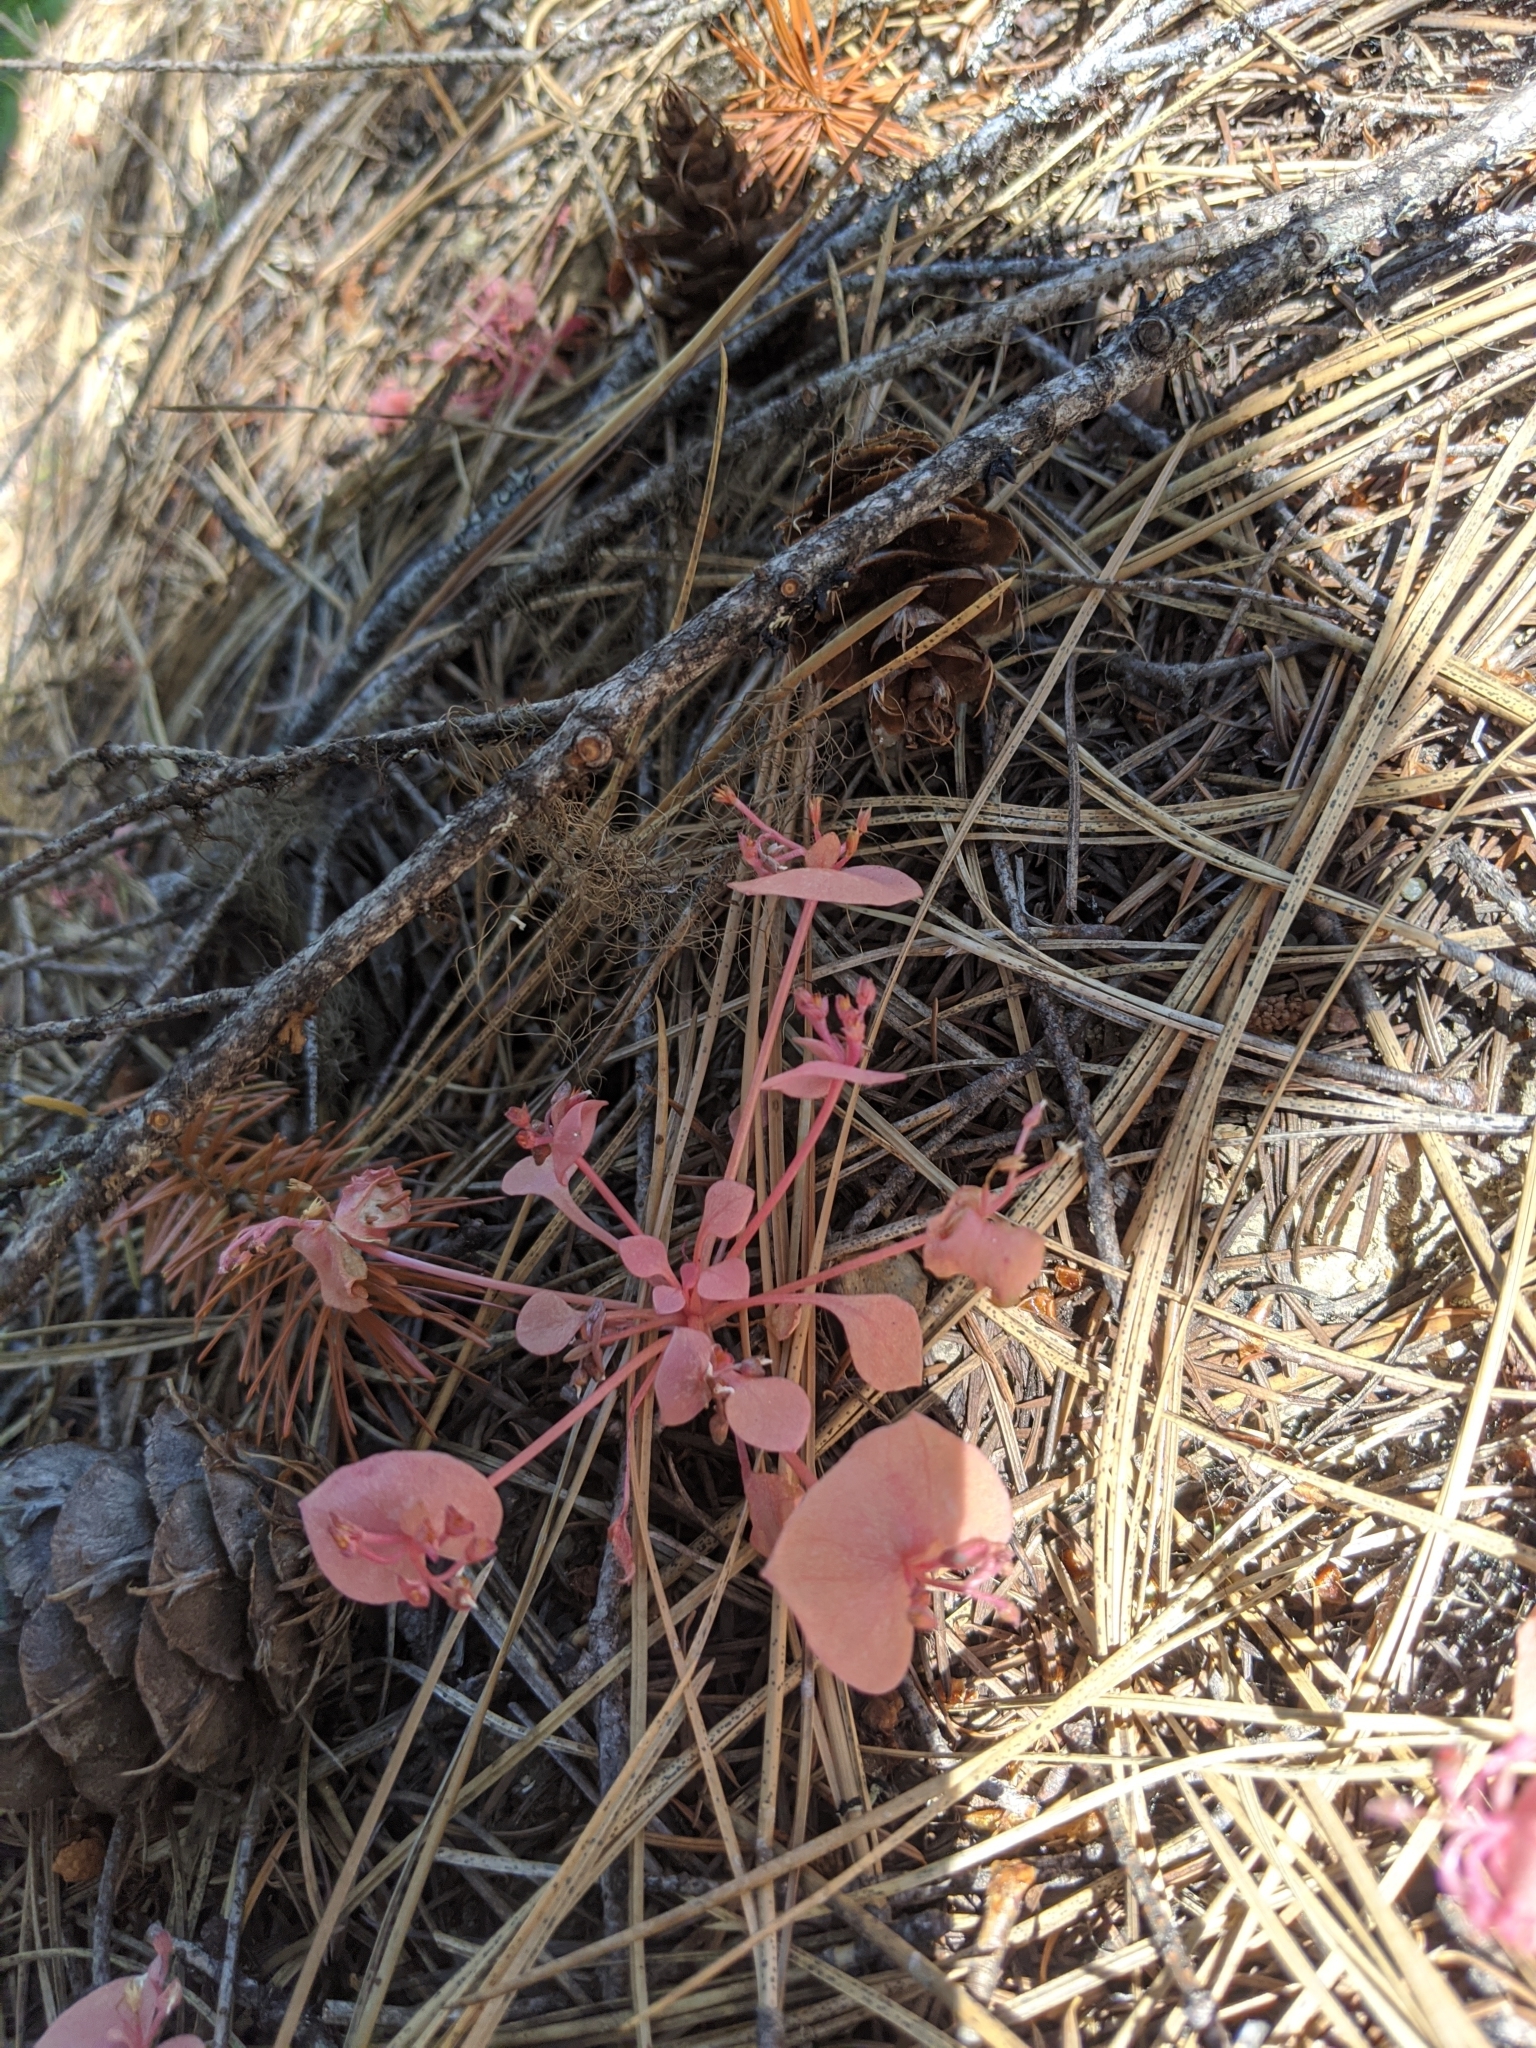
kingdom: Plantae
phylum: Tracheophyta
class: Magnoliopsida
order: Caryophyllales
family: Montiaceae
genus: Claytonia
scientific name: Claytonia rubra
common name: Erubescent miner's-lettuce
